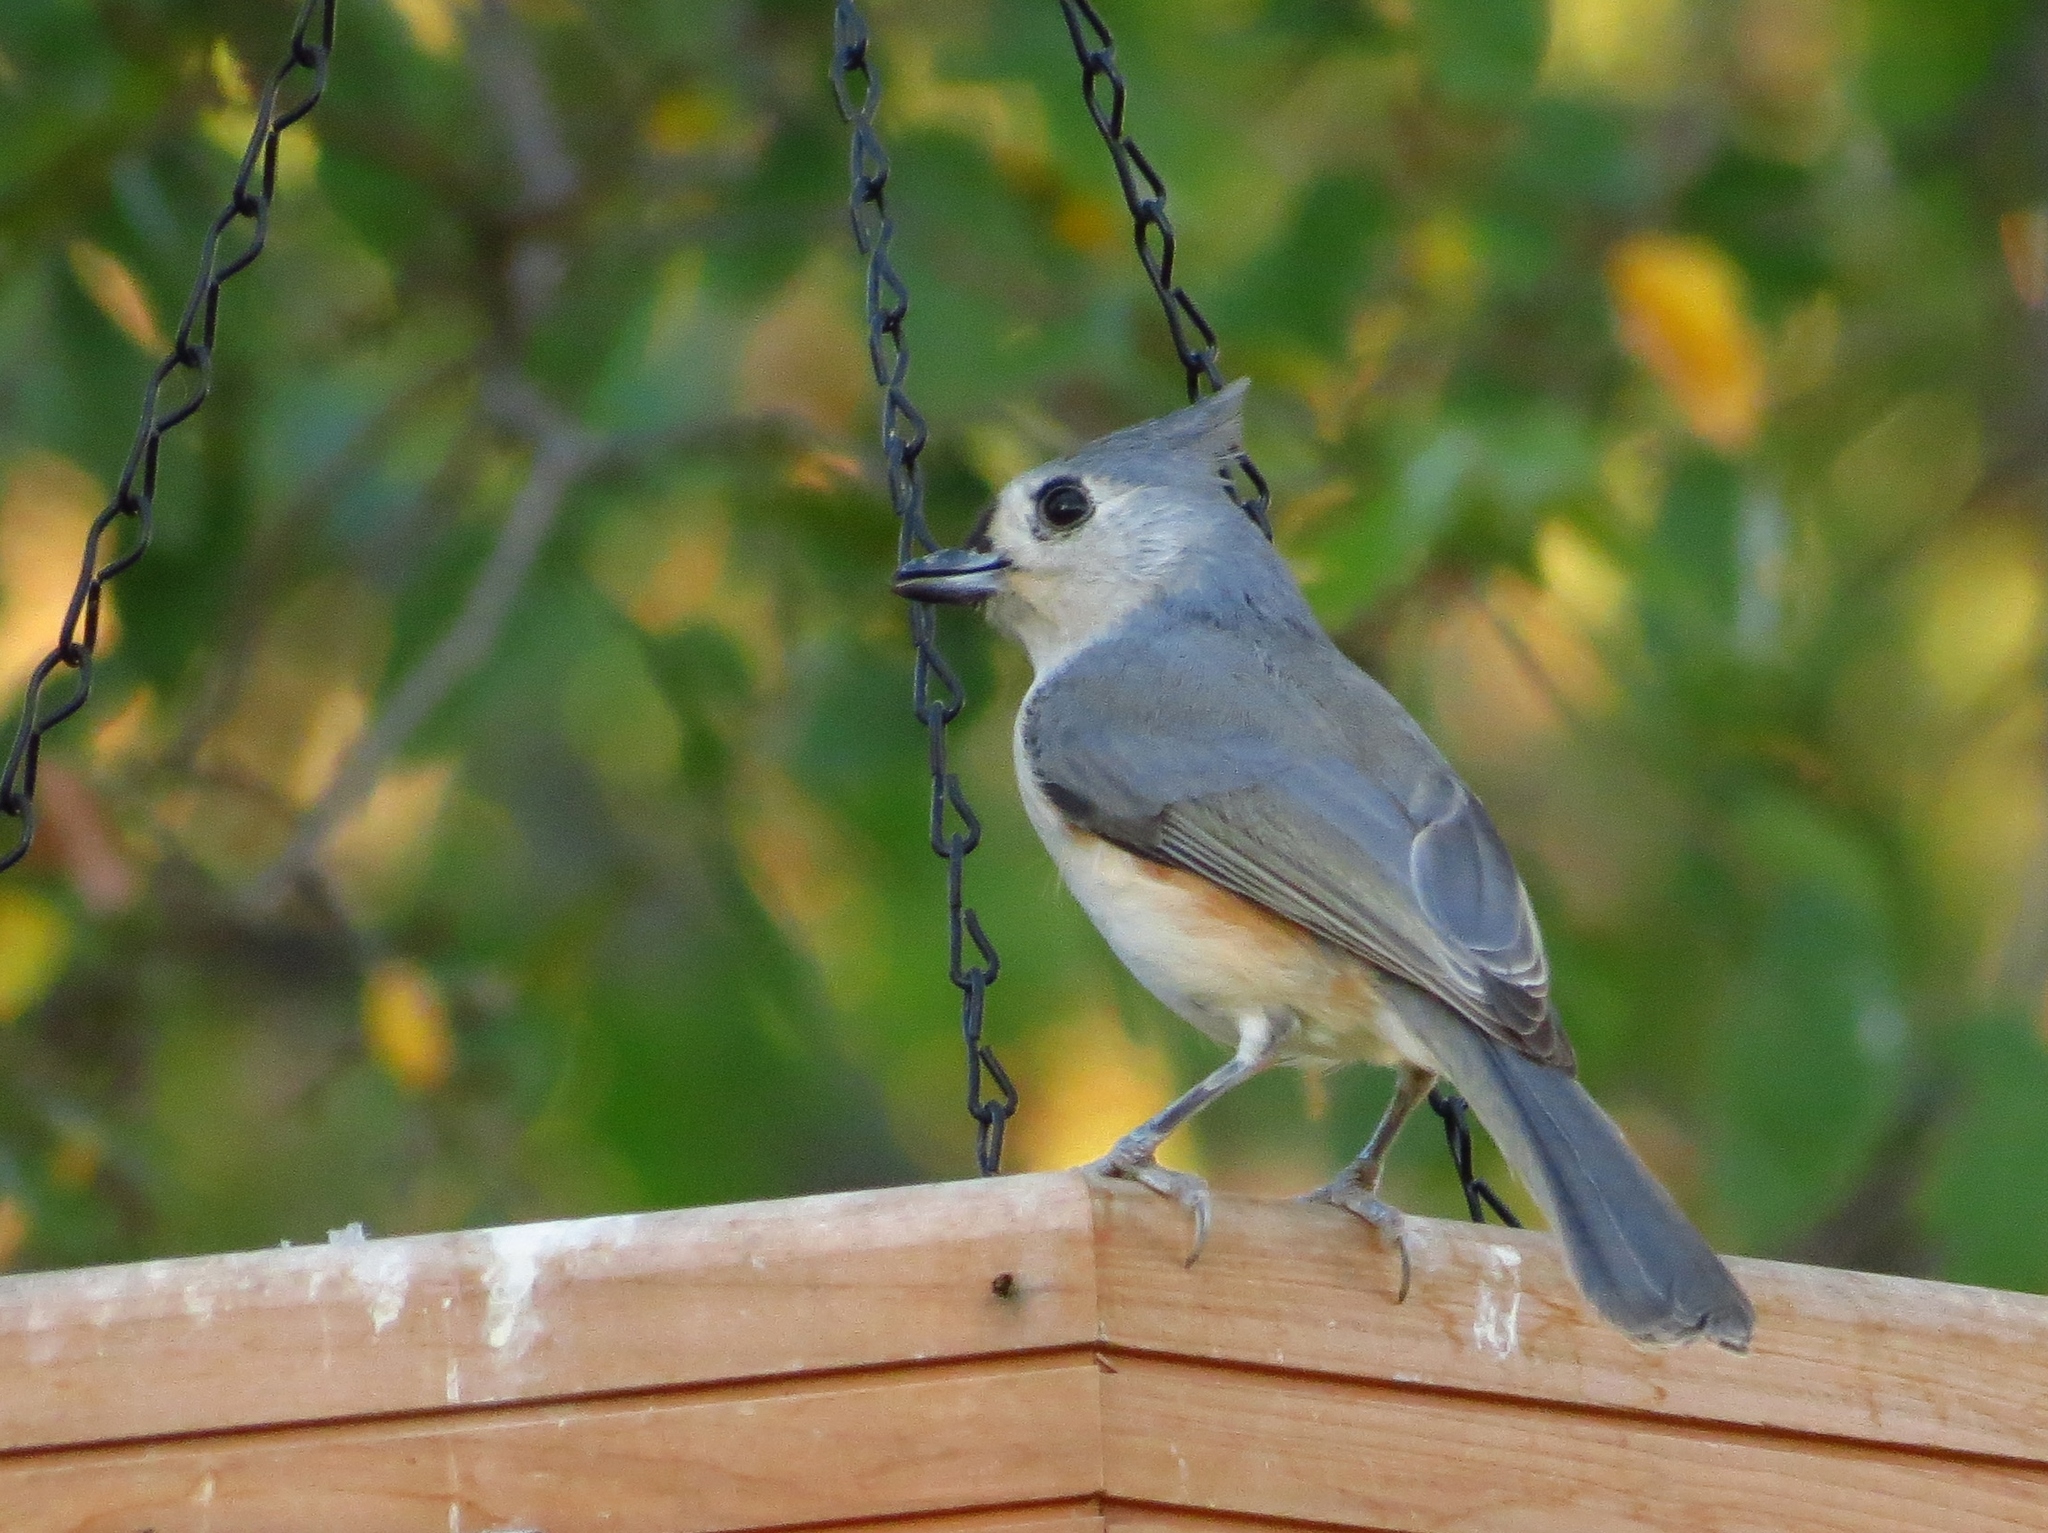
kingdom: Animalia
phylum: Chordata
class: Aves
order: Passeriformes
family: Paridae
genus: Baeolophus
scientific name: Baeolophus bicolor
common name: Tufted titmouse
